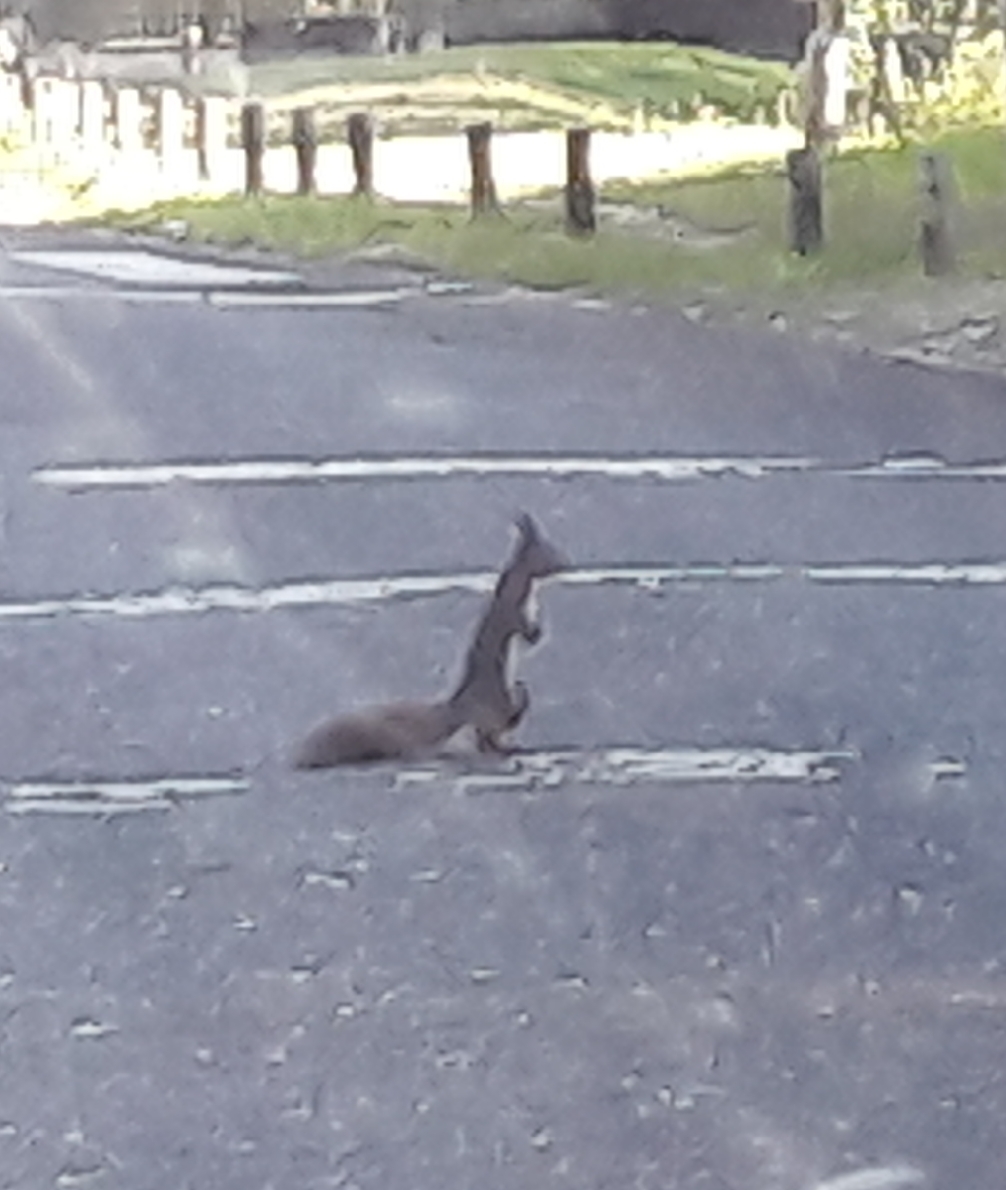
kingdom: Animalia
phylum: Chordata
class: Mammalia
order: Rodentia
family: Sciuridae
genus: Sciurus
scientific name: Sciurus vulgaris
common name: Eurasian red squirrel
